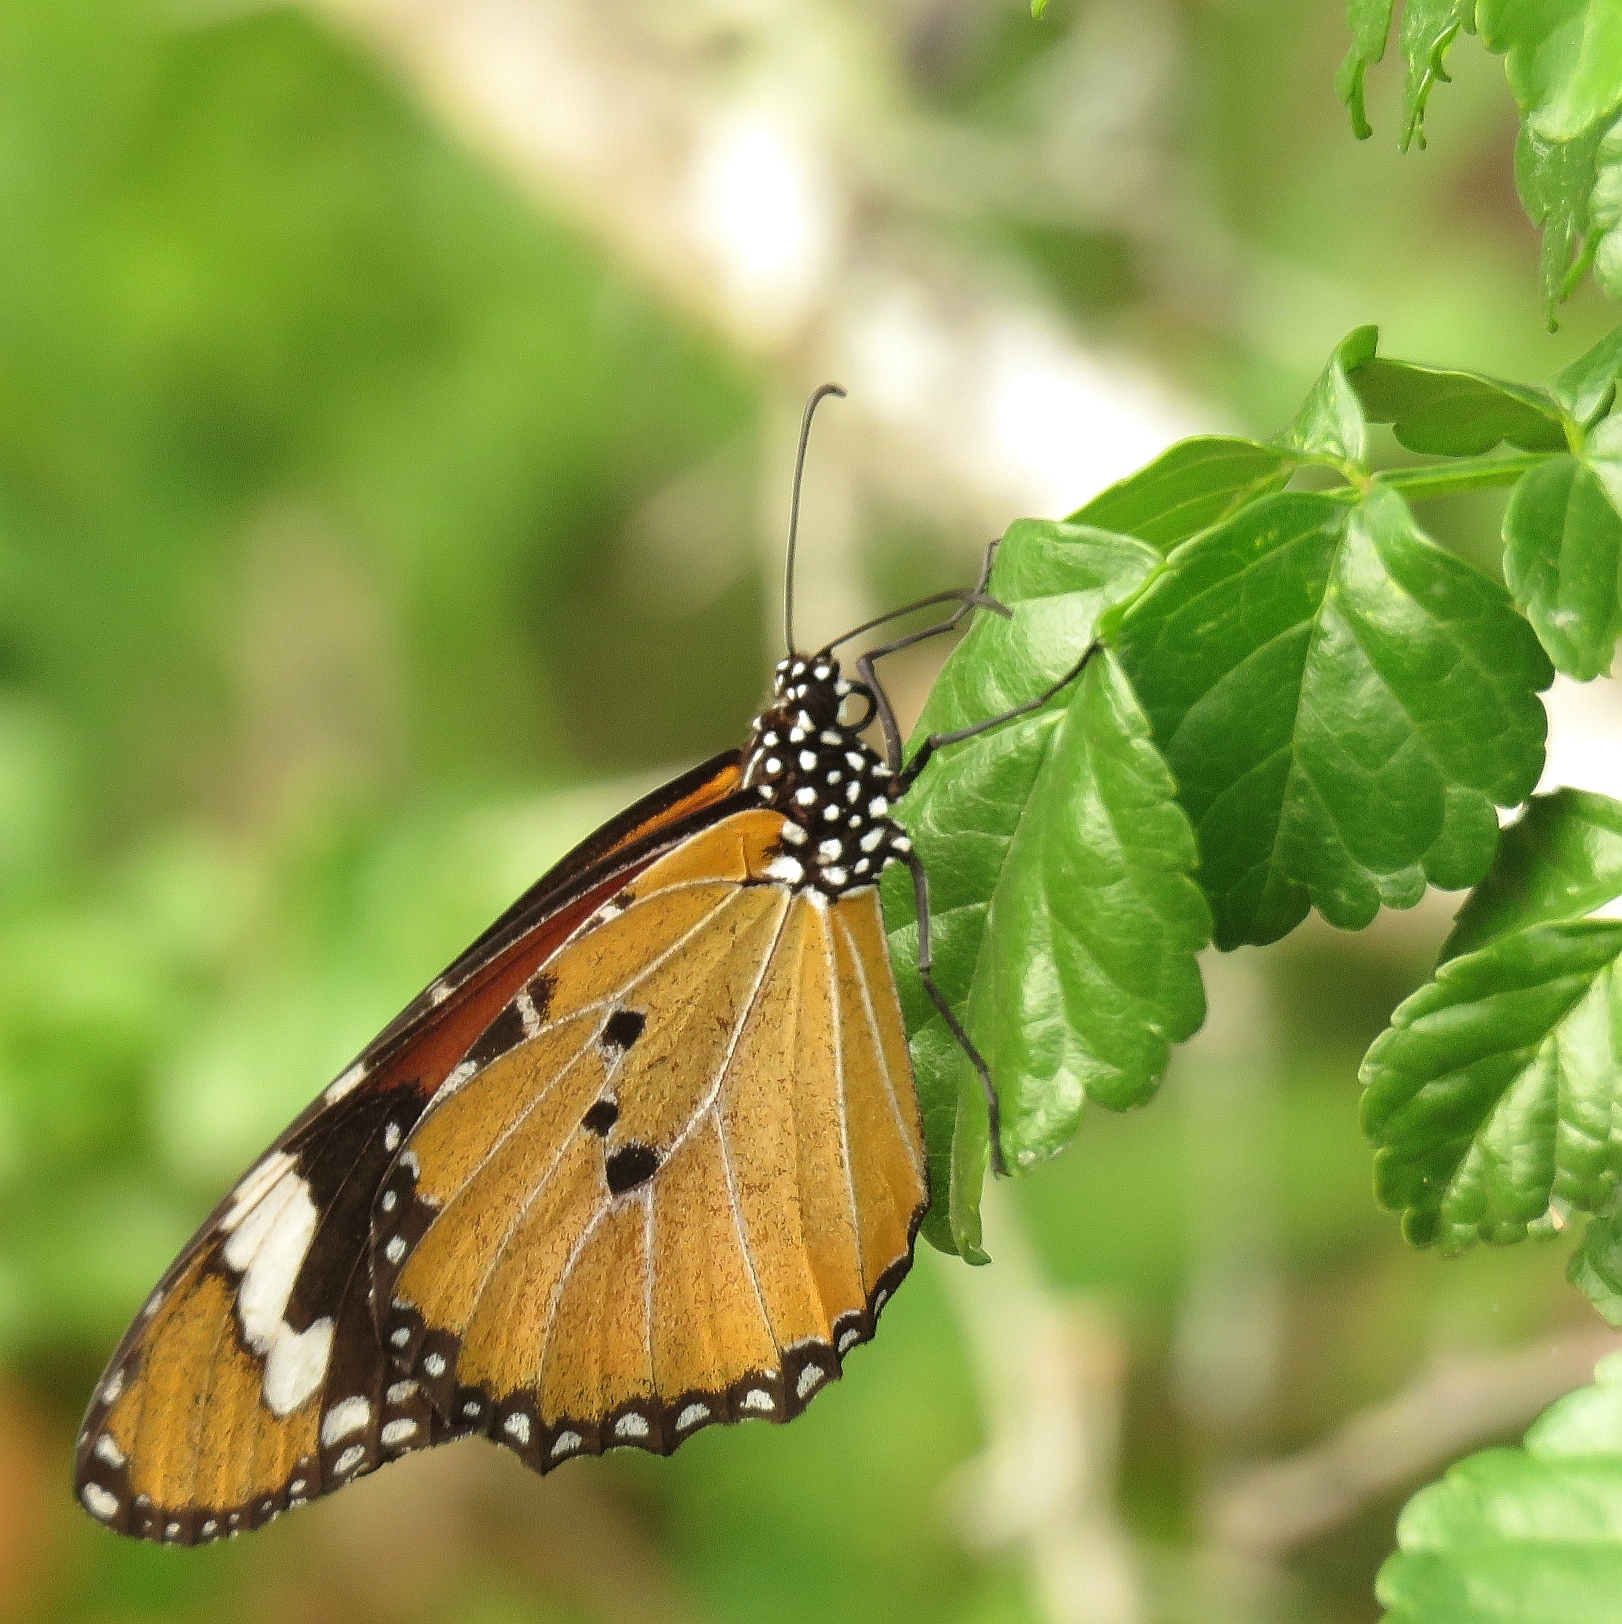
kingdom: Animalia
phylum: Arthropoda
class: Insecta
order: Lepidoptera
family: Nymphalidae
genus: Danaus
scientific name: Danaus chrysippus
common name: Plain tiger
